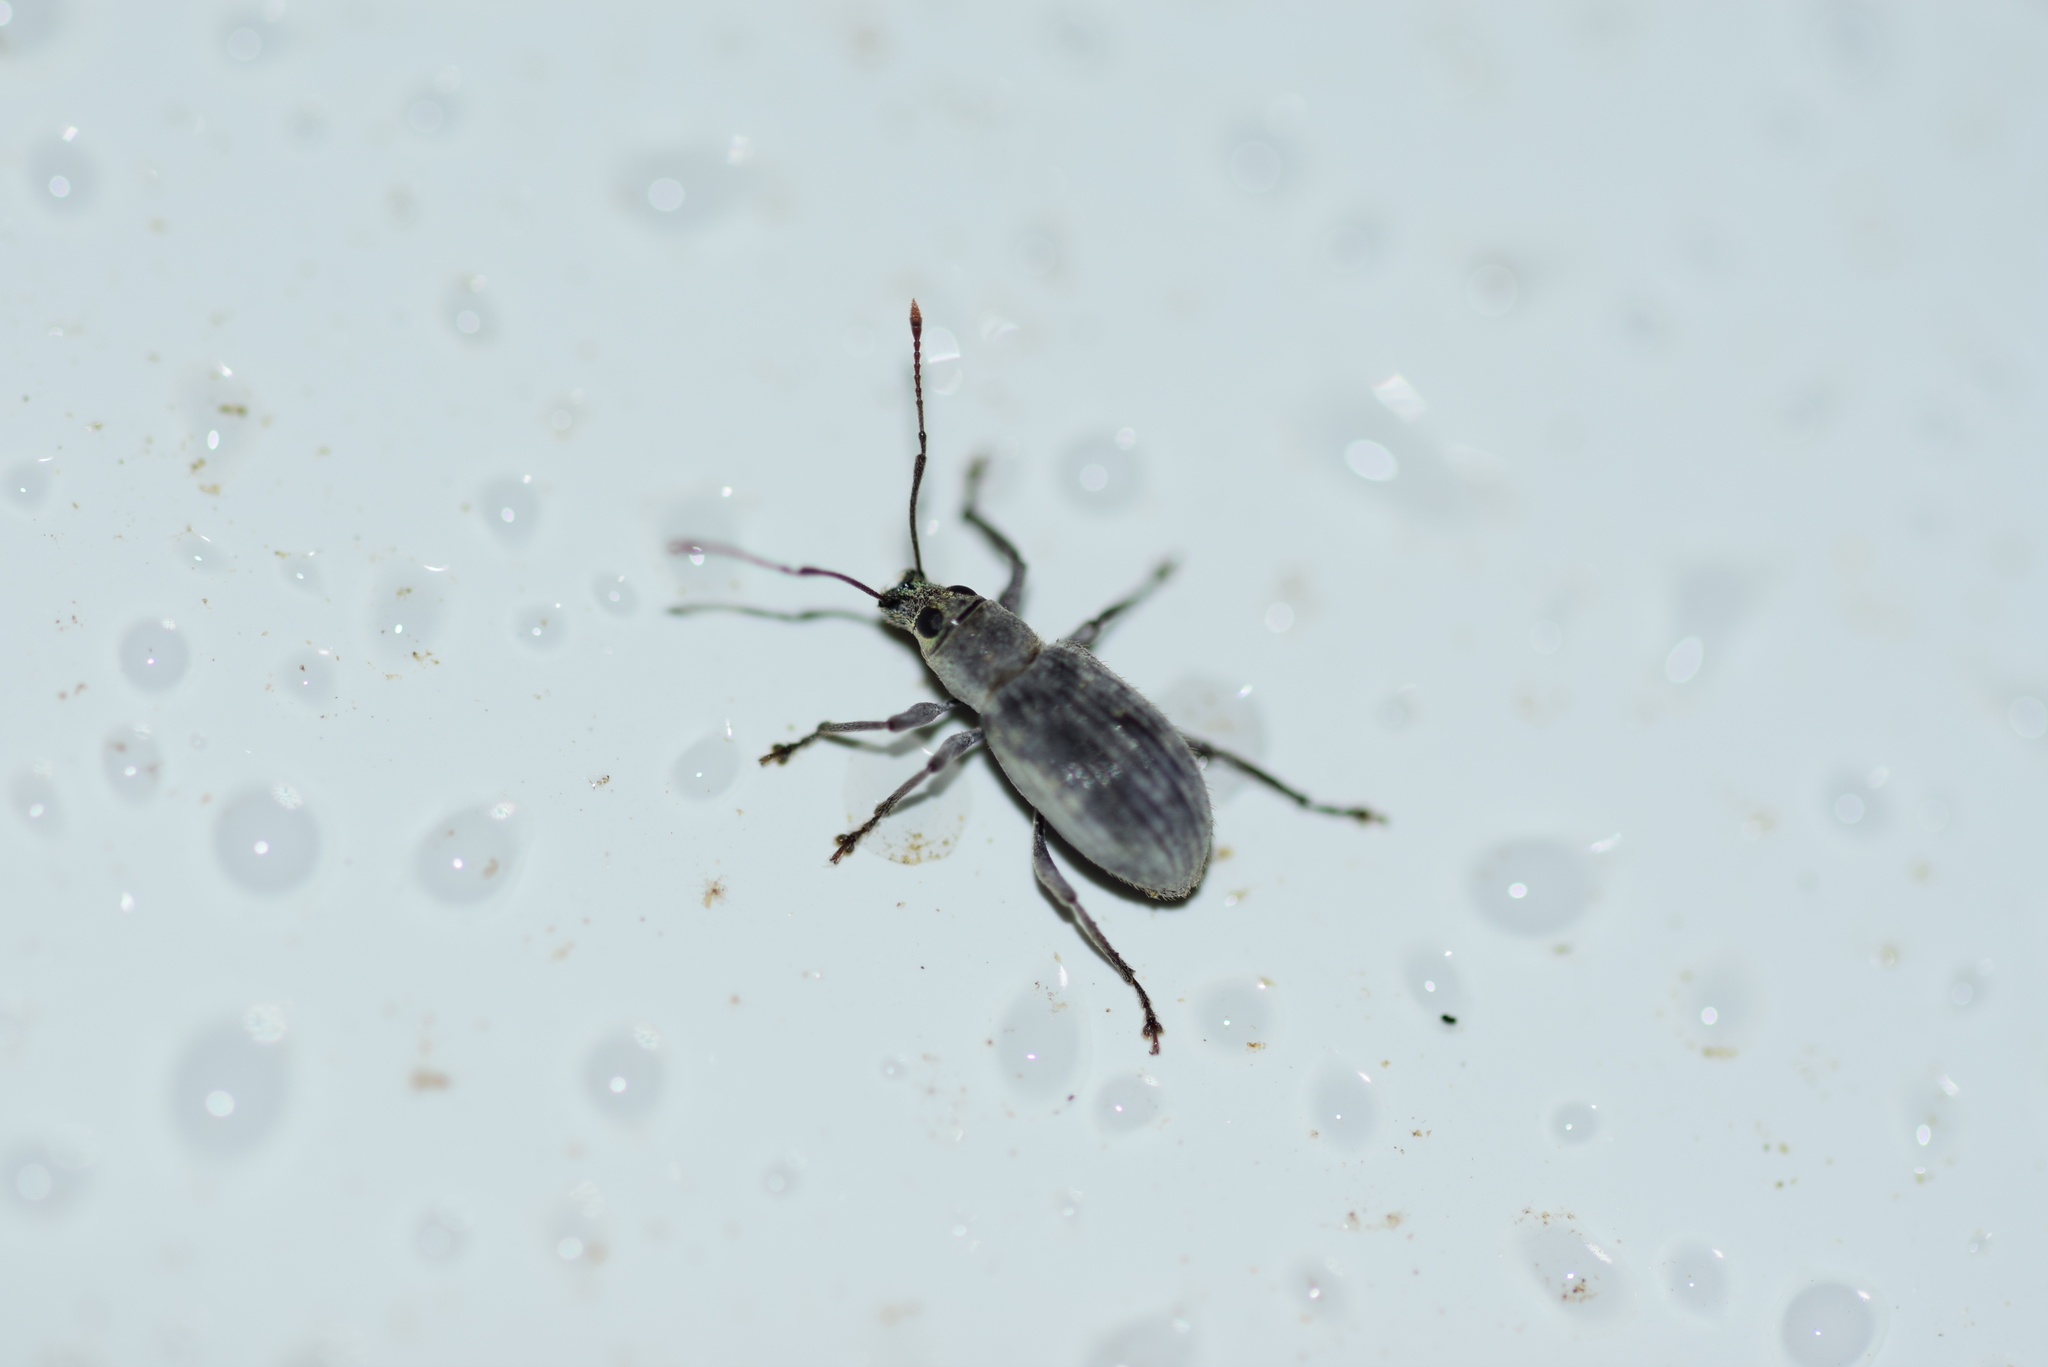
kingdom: Animalia
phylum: Arthropoda
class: Insecta
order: Coleoptera
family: Curculionidae
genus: Cyrtepistomus
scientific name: Cyrtepistomus castaneus
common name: Weevil
